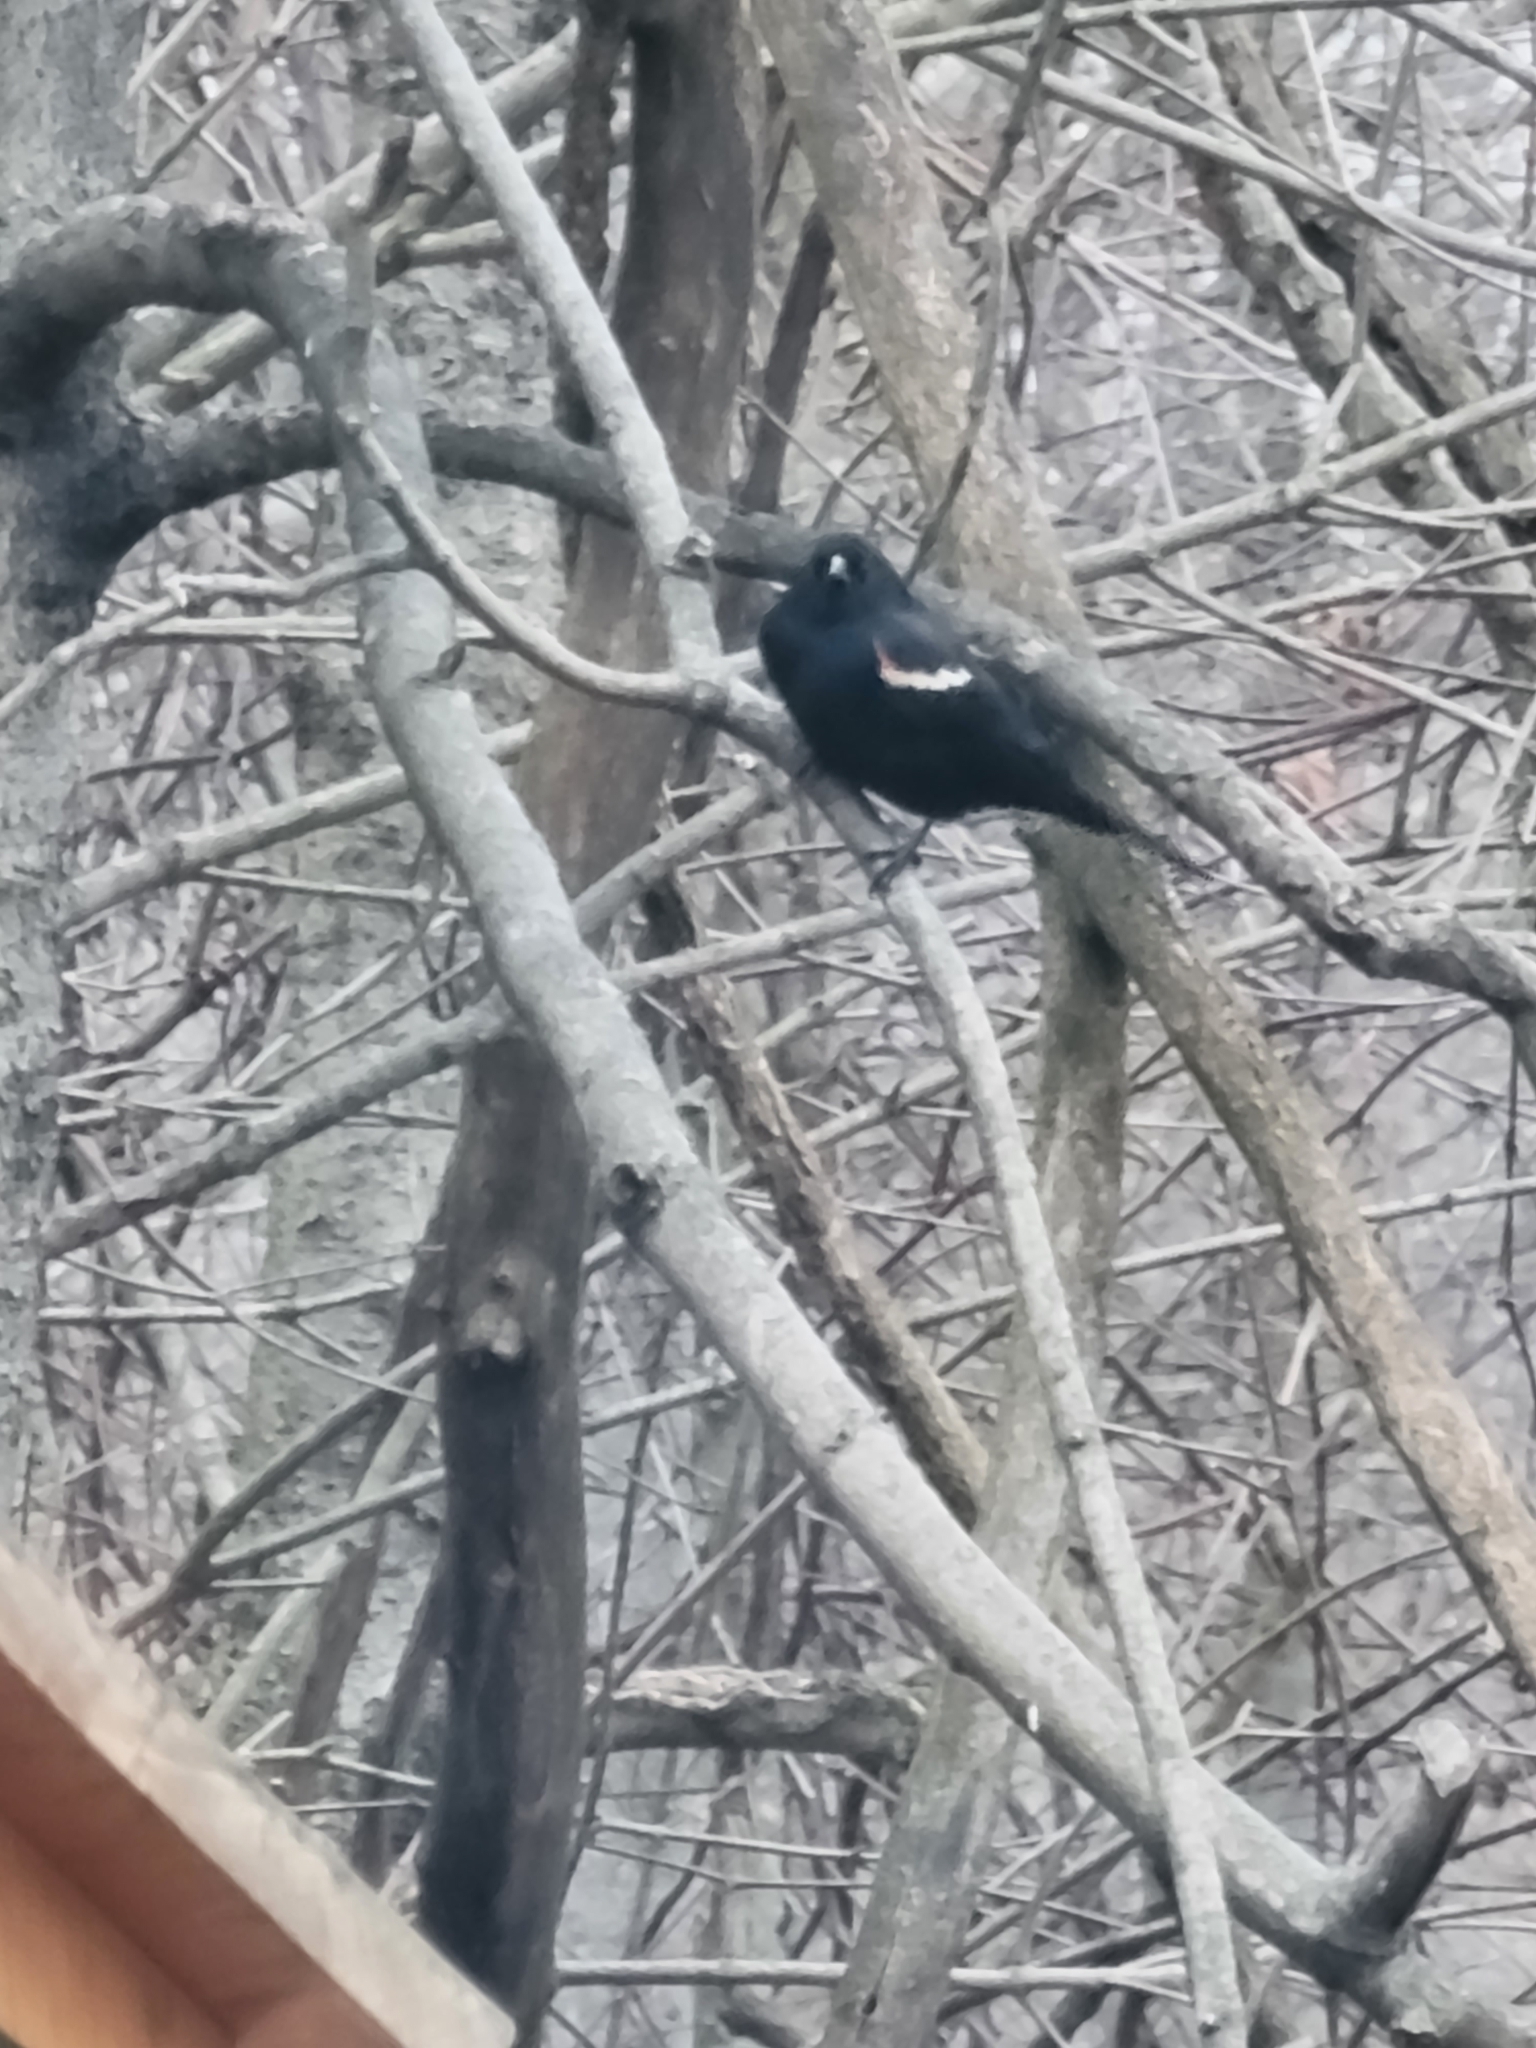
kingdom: Animalia
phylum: Chordata
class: Aves
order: Passeriformes
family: Icteridae
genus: Agelaius
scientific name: Agelaius phoeniceus
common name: Red-winged blackbird
